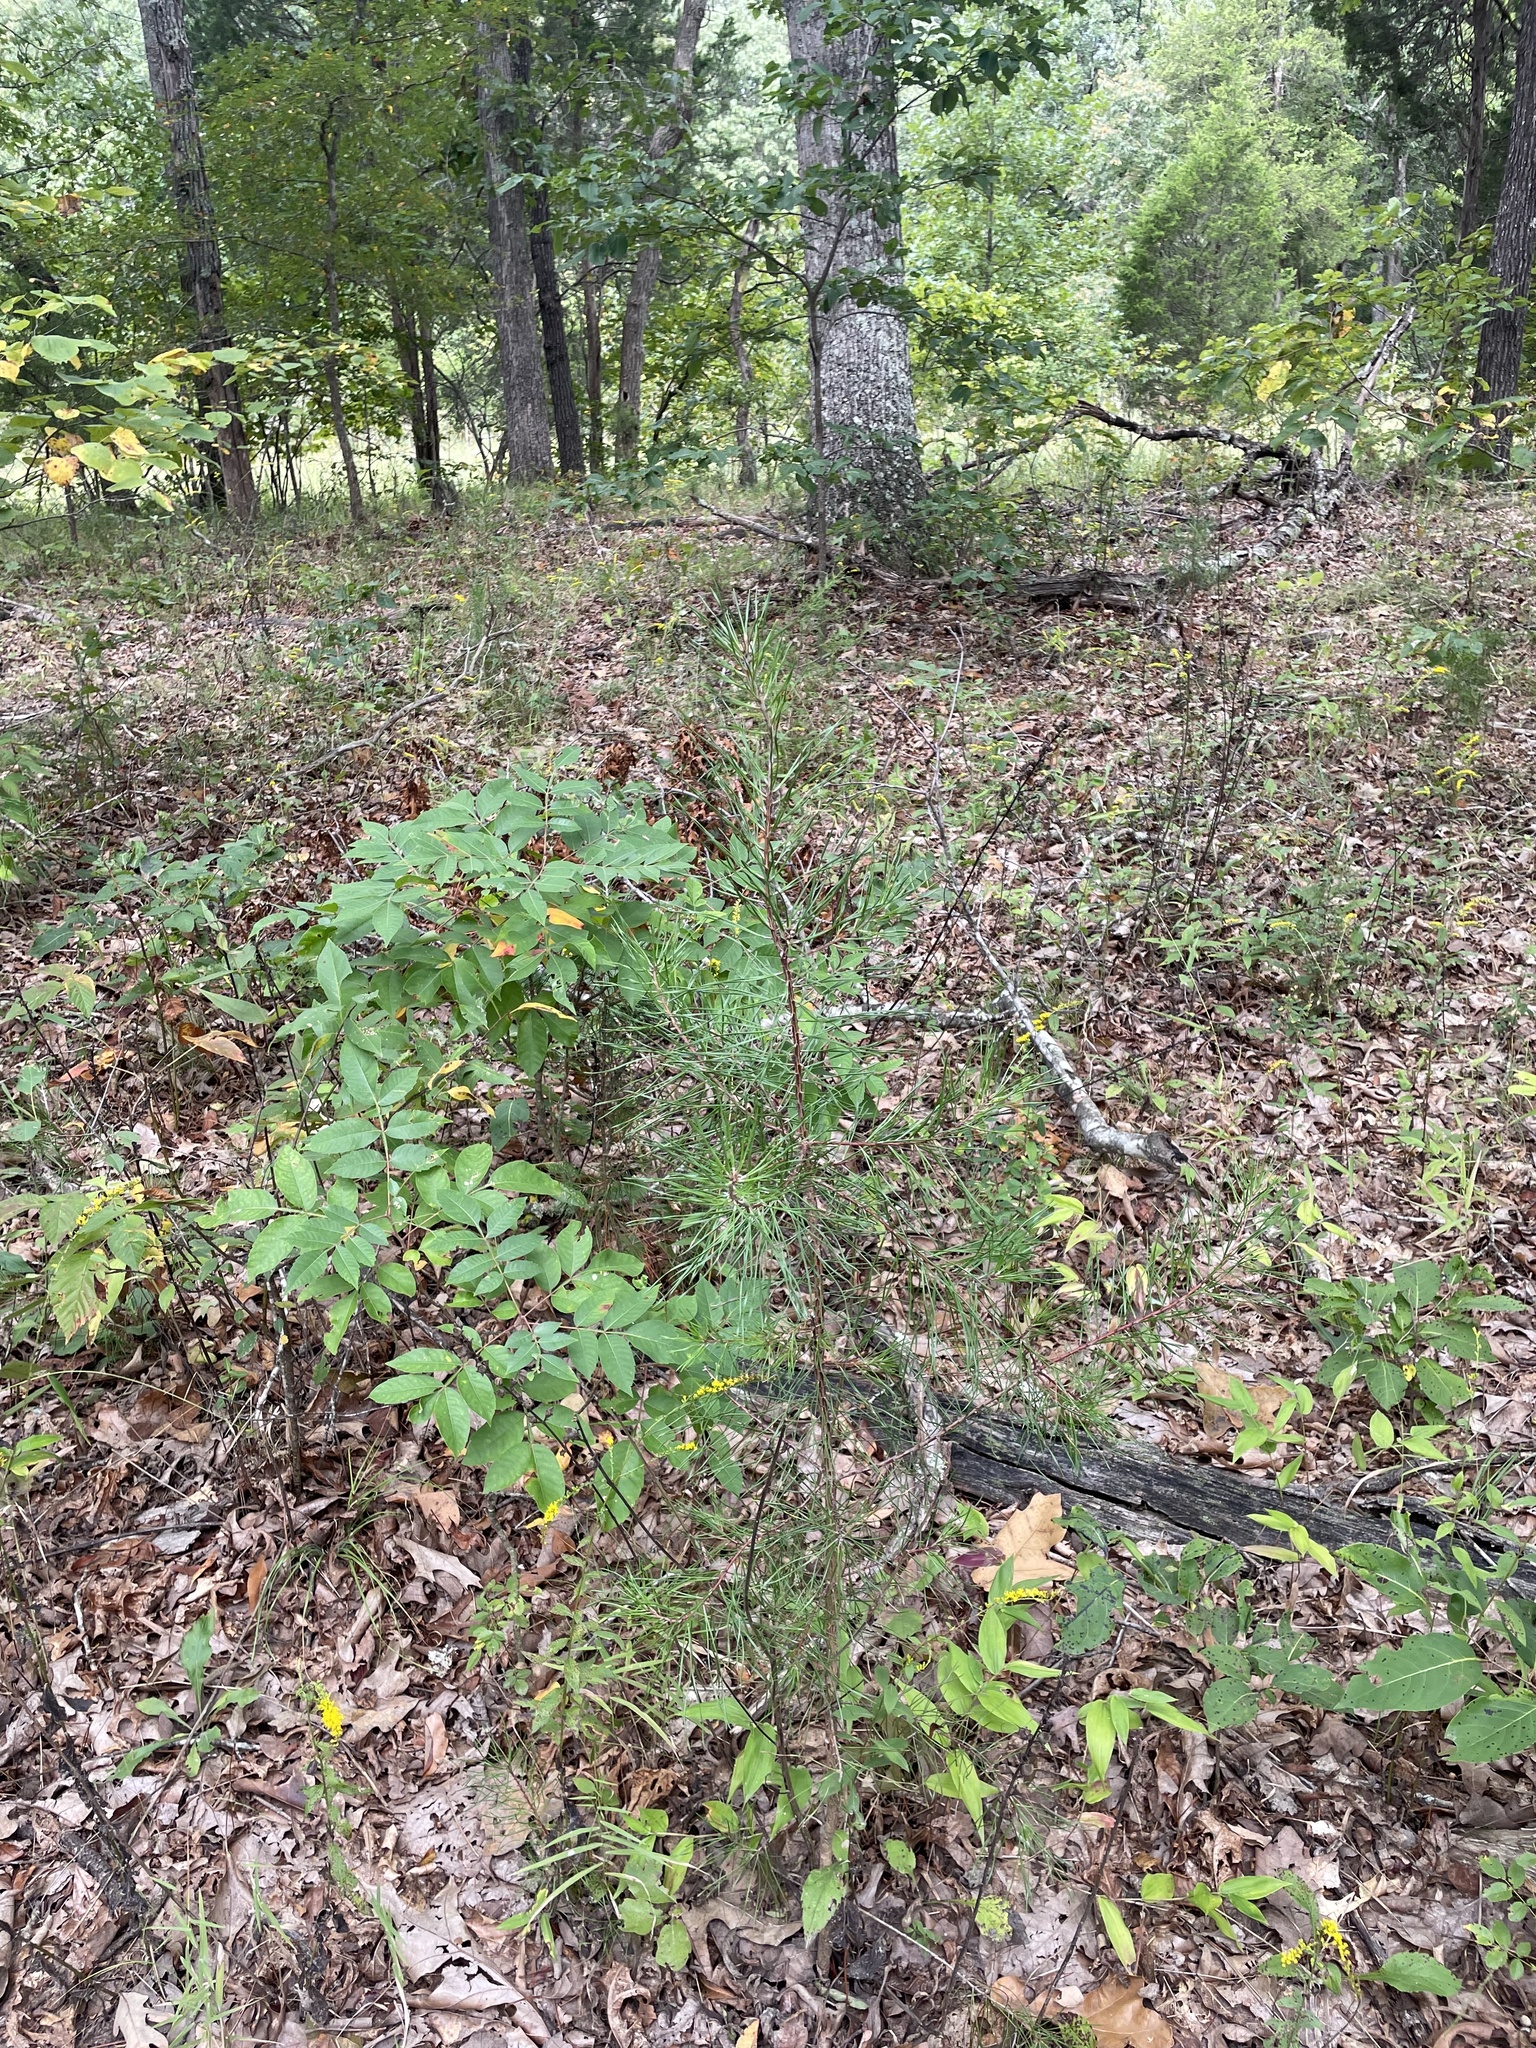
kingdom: Plantae
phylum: Tracheophyta
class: Pinopsida
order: Pinales
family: Pinaceae
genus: Pinus
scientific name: Pinus virginiana
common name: Scrub pine
